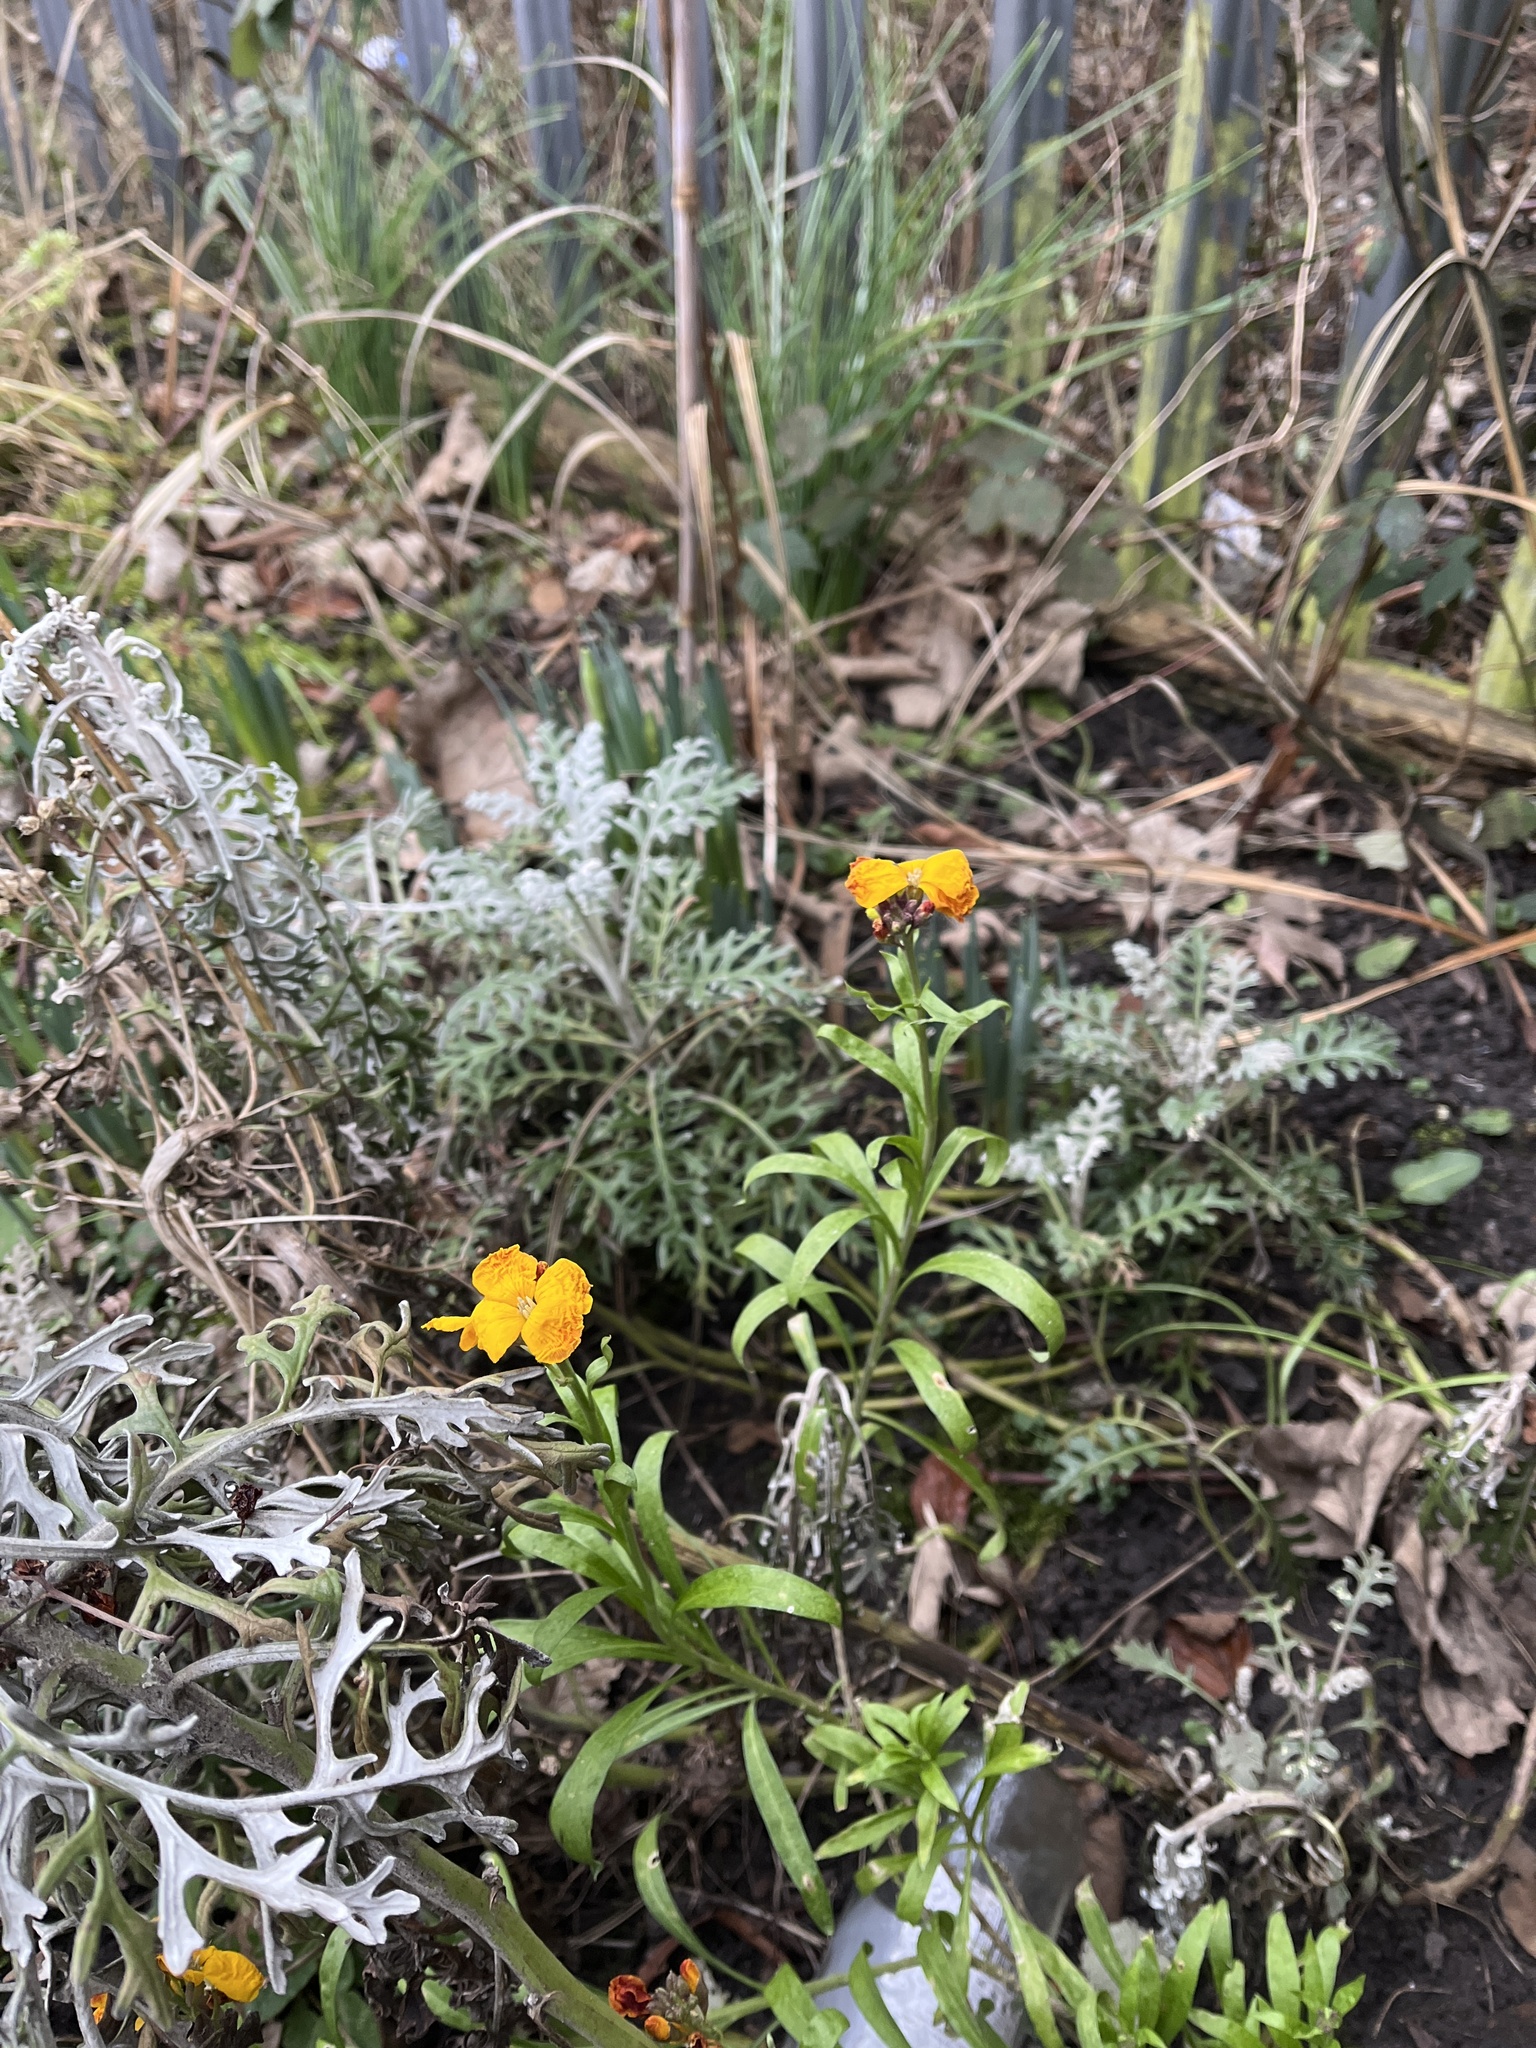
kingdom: Plantae
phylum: Tracheophyta
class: Magnoliopsida
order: Brassicales
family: Brassicaceae
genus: Erysimum
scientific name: Erysimum cheiri
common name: Wallflower
